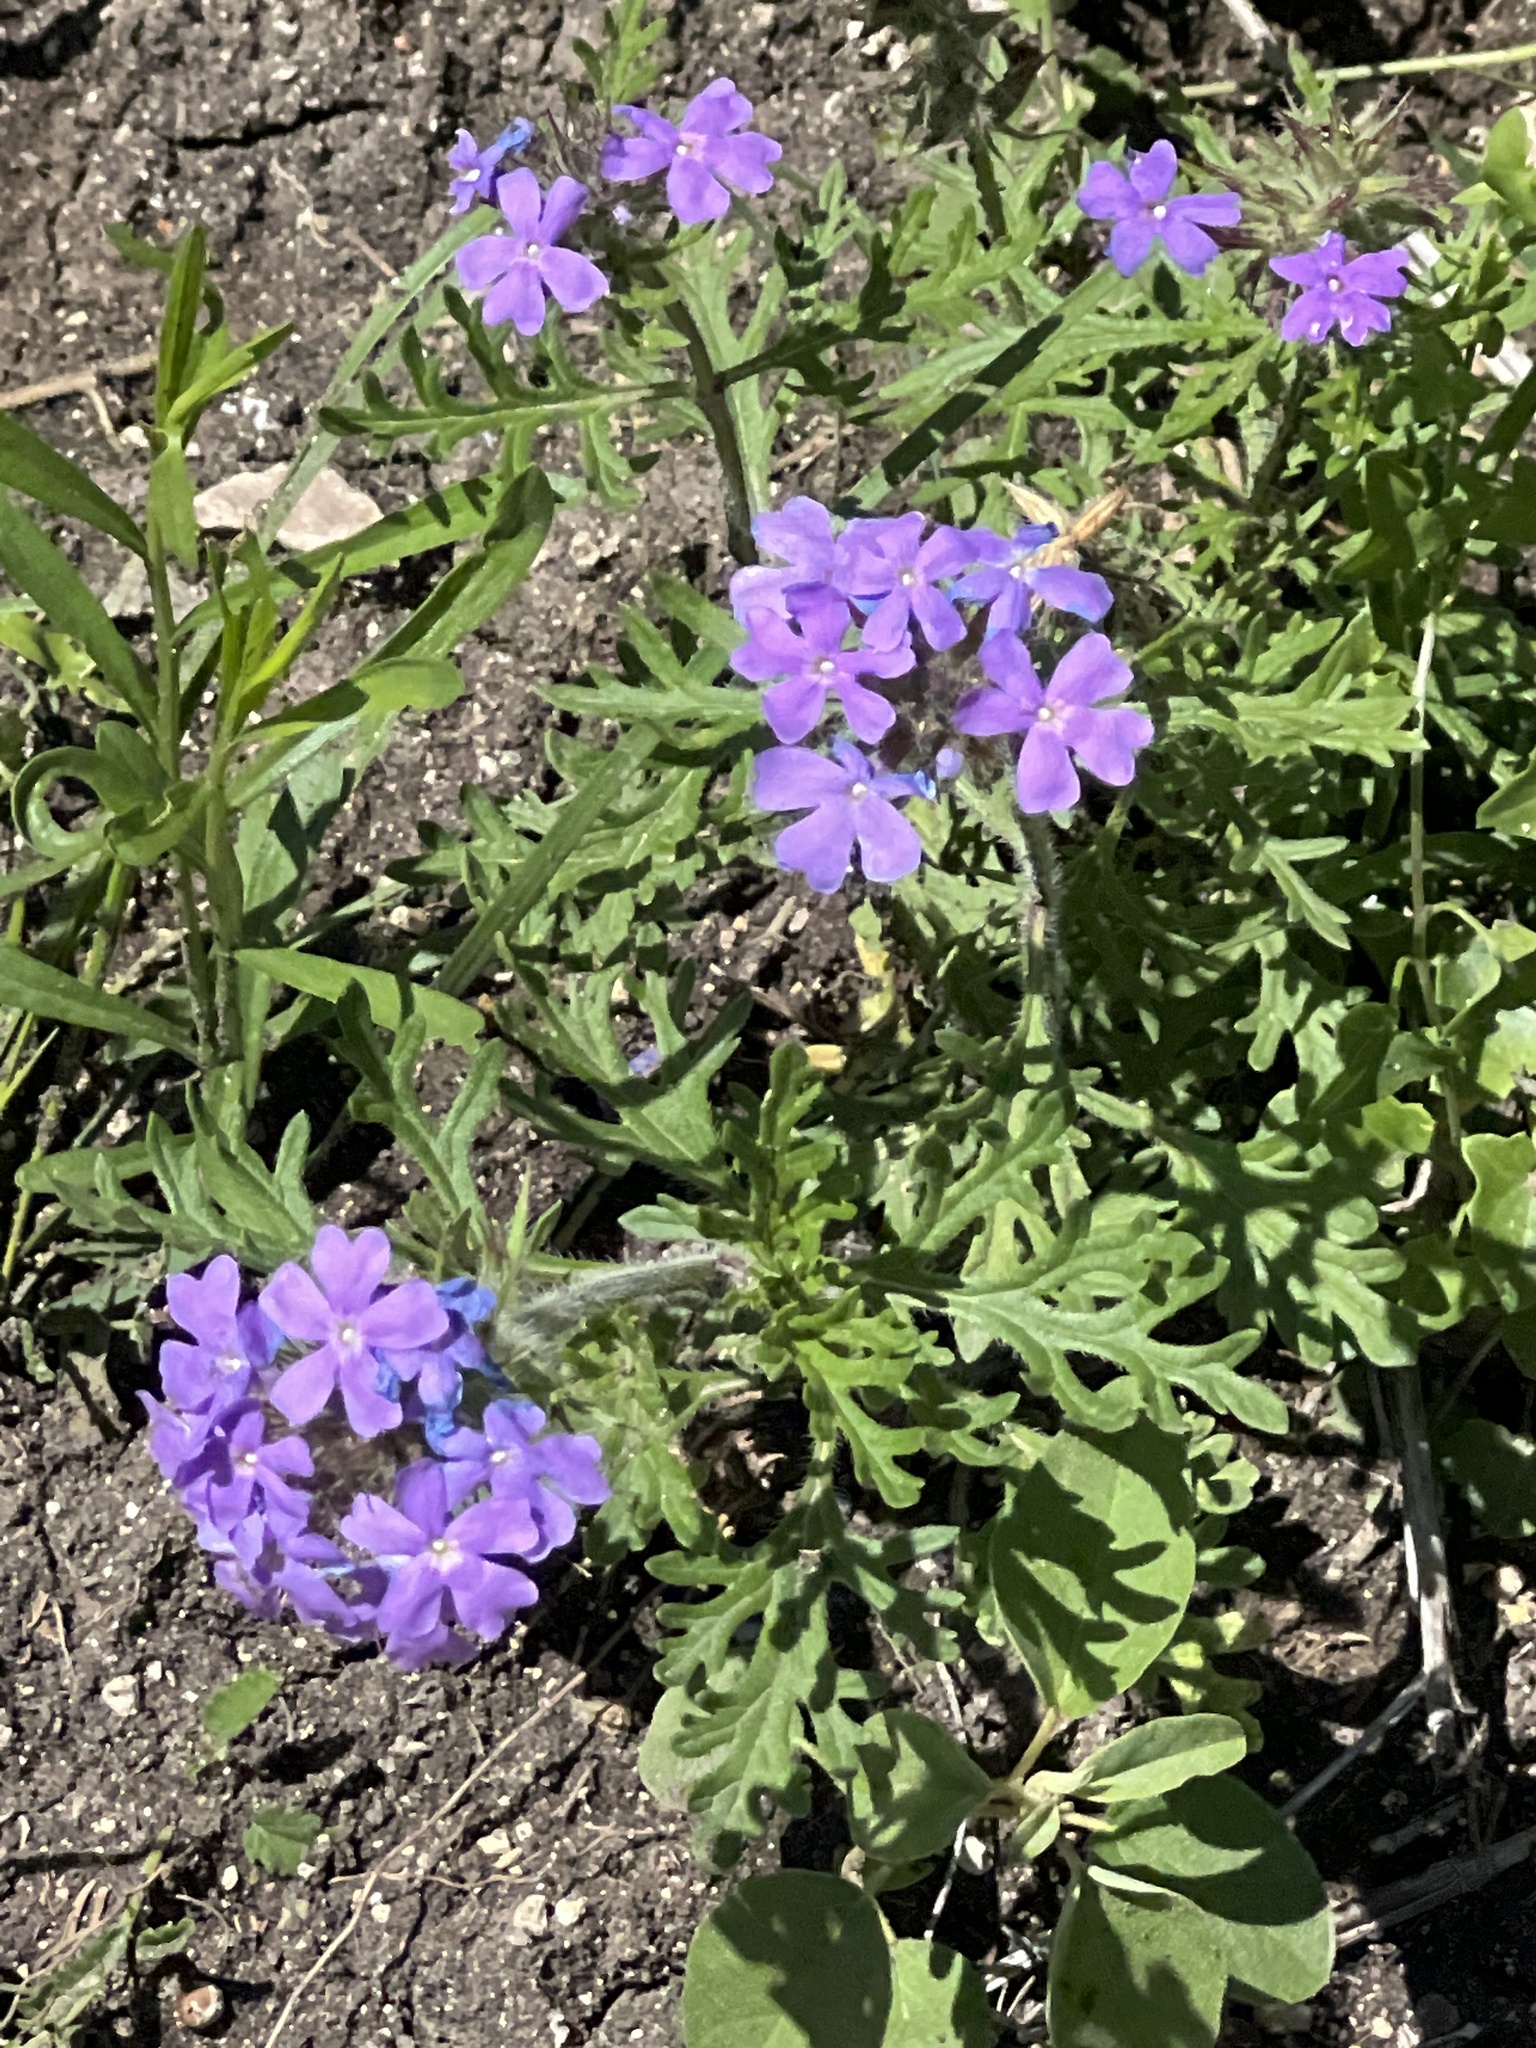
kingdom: Plantae
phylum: Tracheophyta
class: Magnoliopsida
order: Lamiales
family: Verbenaceae
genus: Verbena
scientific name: Verbena bipinnatifida
